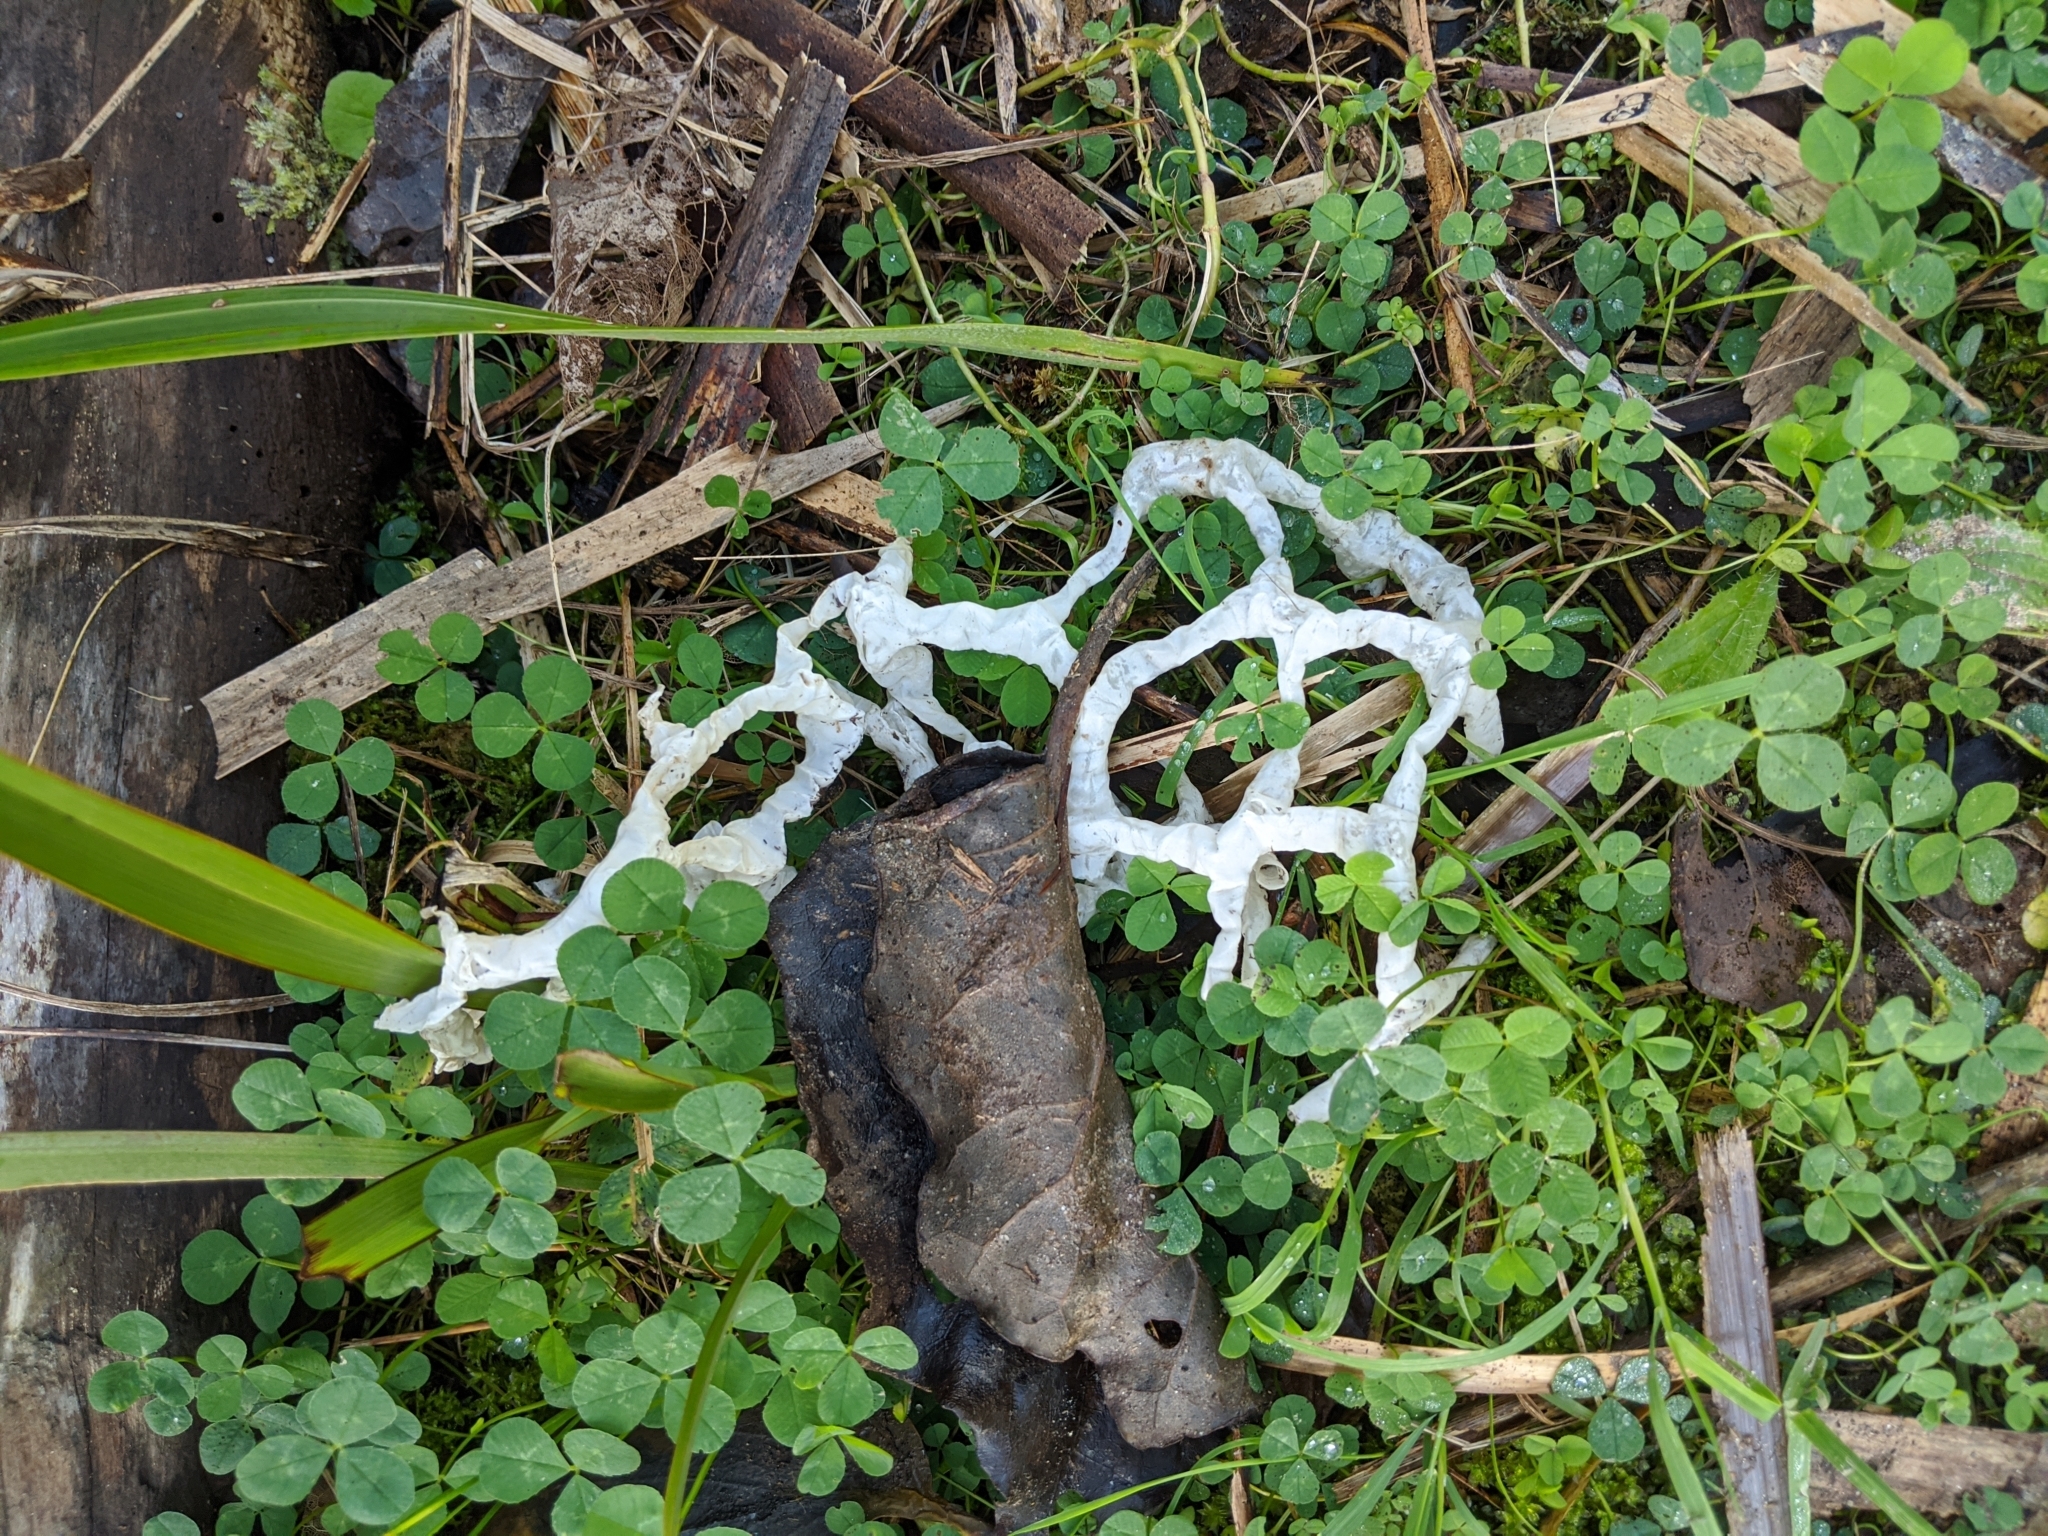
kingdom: Fungi
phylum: Basidiomycota
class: Agaricomycetes
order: Phallales
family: Phallaceae
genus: Ileodictyon
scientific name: Ileodictyon cibarium
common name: Basket fungus
